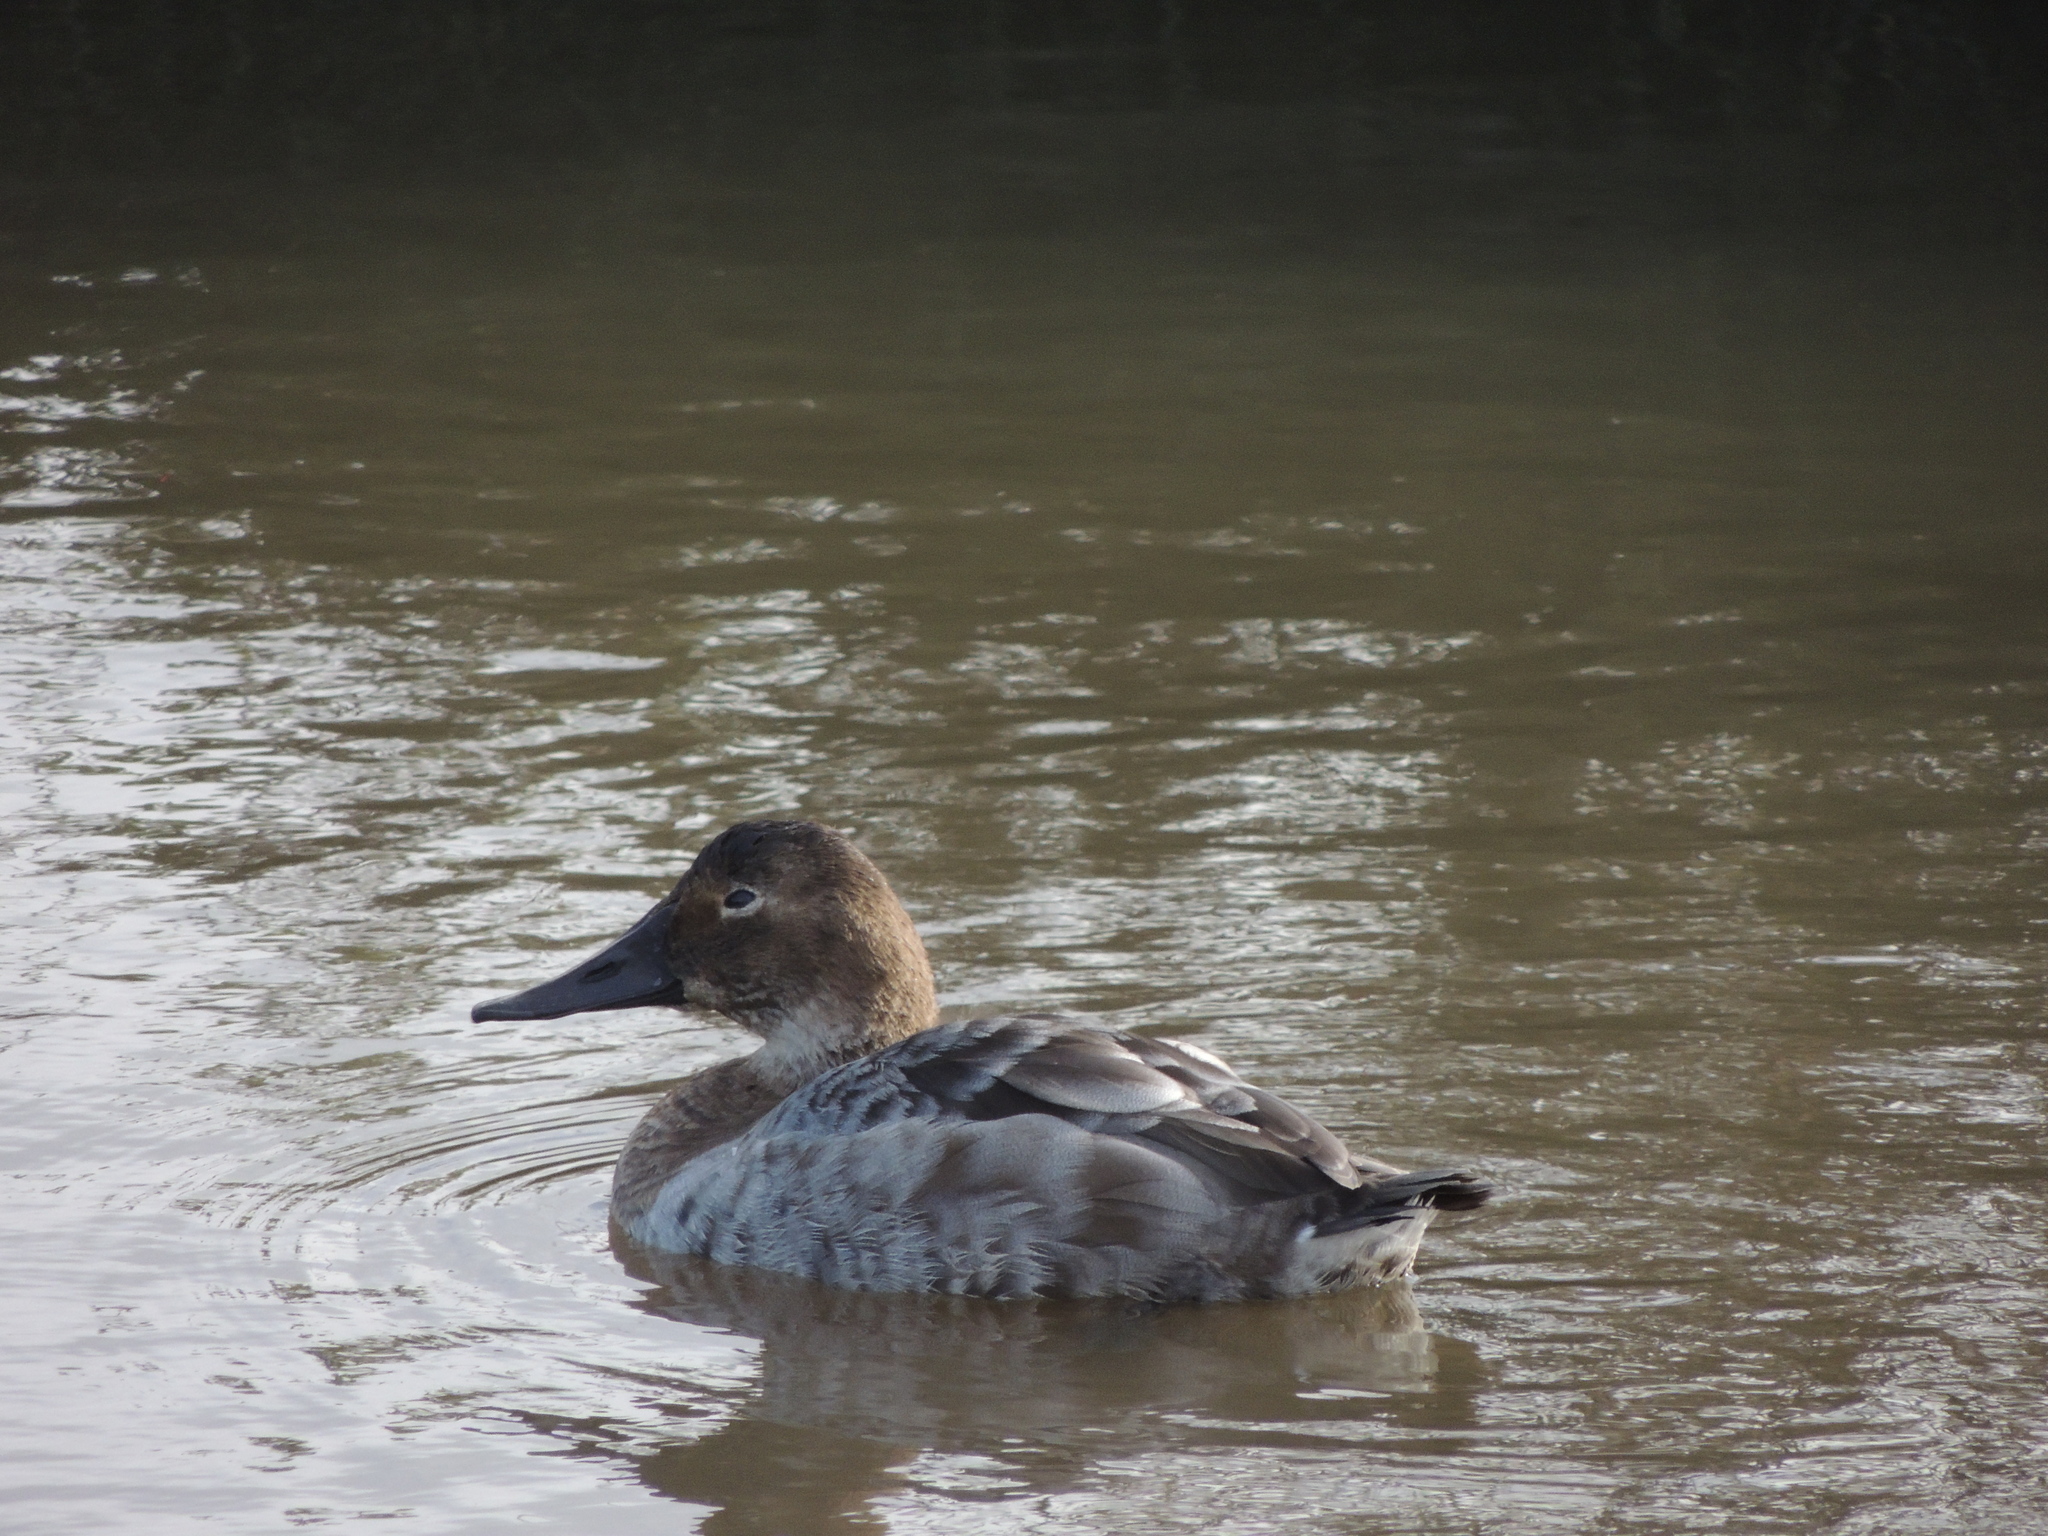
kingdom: Animalia
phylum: Chordata
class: Aves
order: Anseriformes
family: Anatidae
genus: Aythya
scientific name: Aythya valisineria
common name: Canvasback
